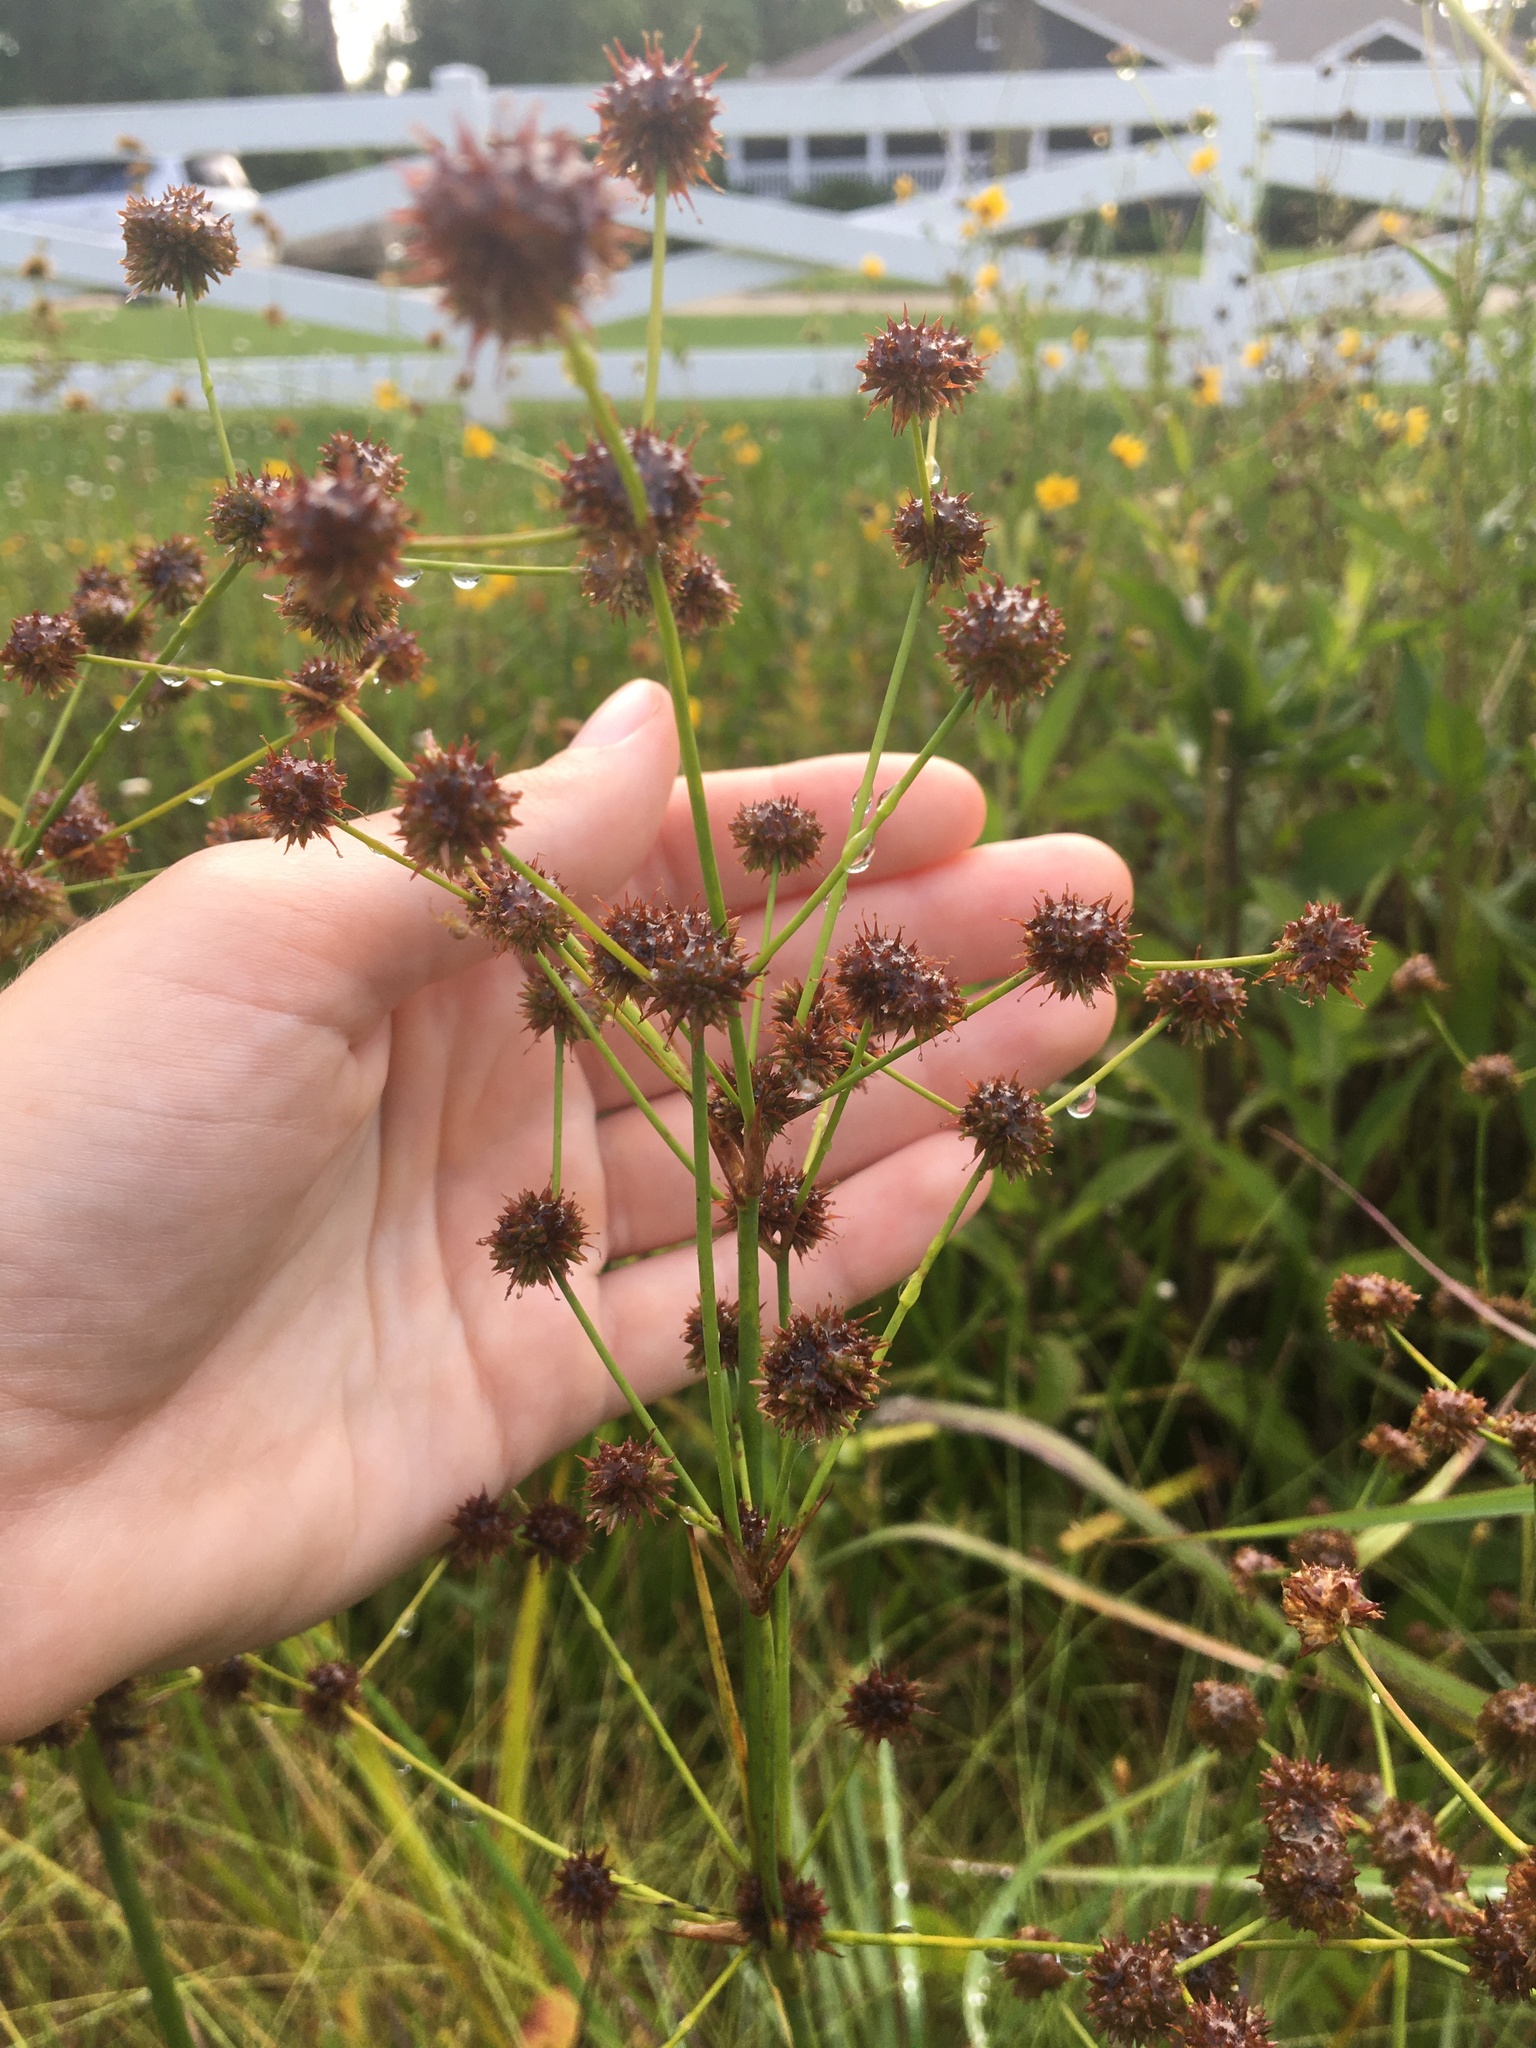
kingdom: Plantae
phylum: Tracheophyta
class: Liliopsida
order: Poales
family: Juncaceae
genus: Juncus
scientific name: Juncus validus
